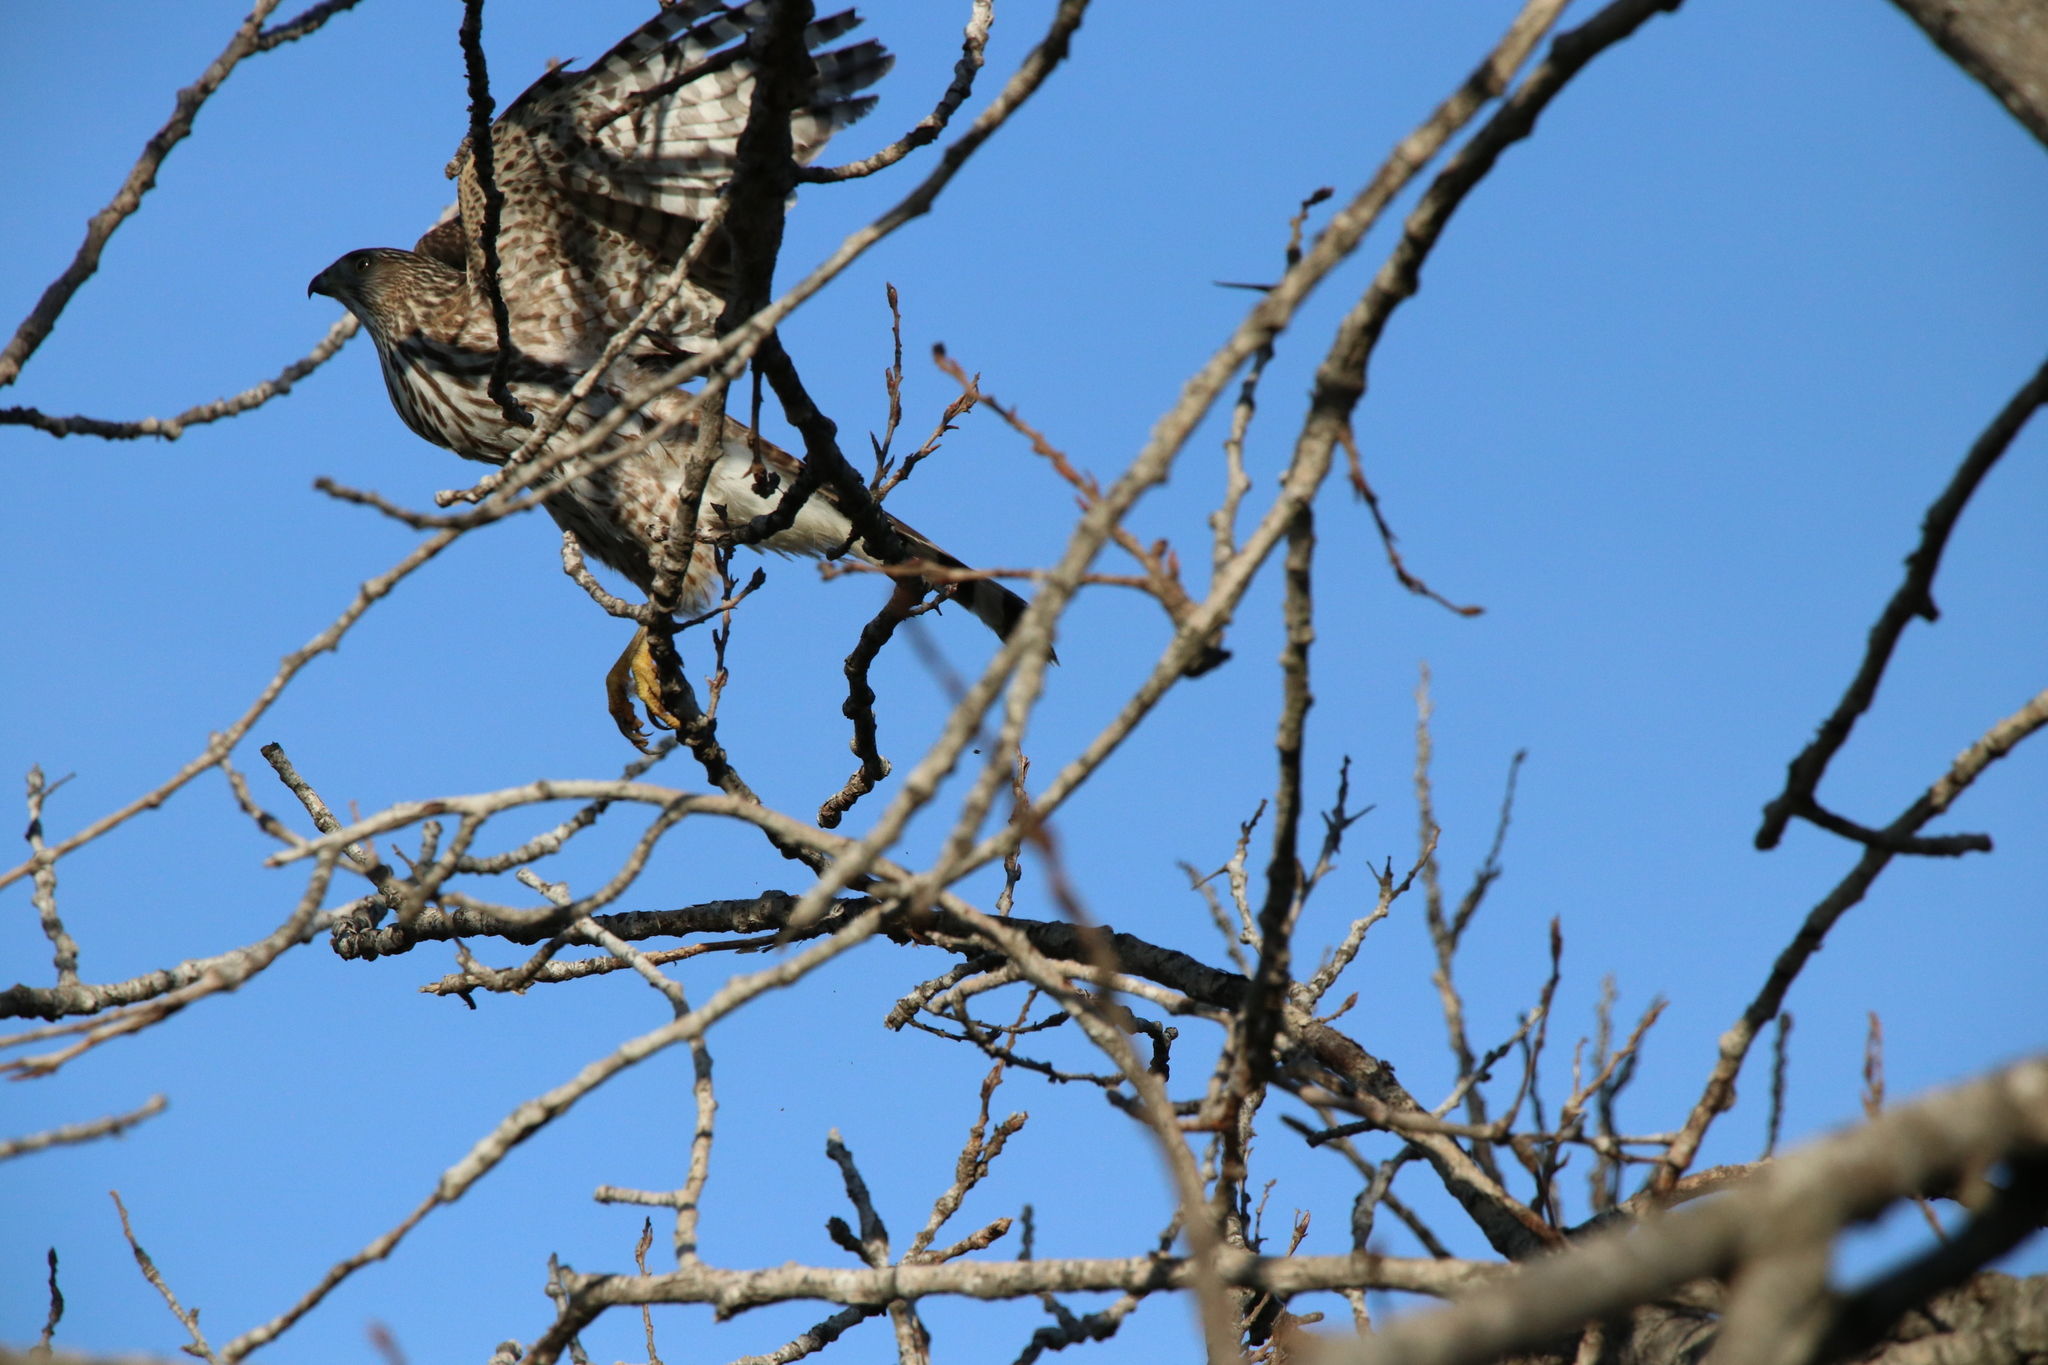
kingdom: Animalia
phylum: Chordata
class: Aves
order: Accipitriformes
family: Accipitridae
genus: Accipiter
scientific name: Accipiter cooperii
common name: Cooper's hawk
